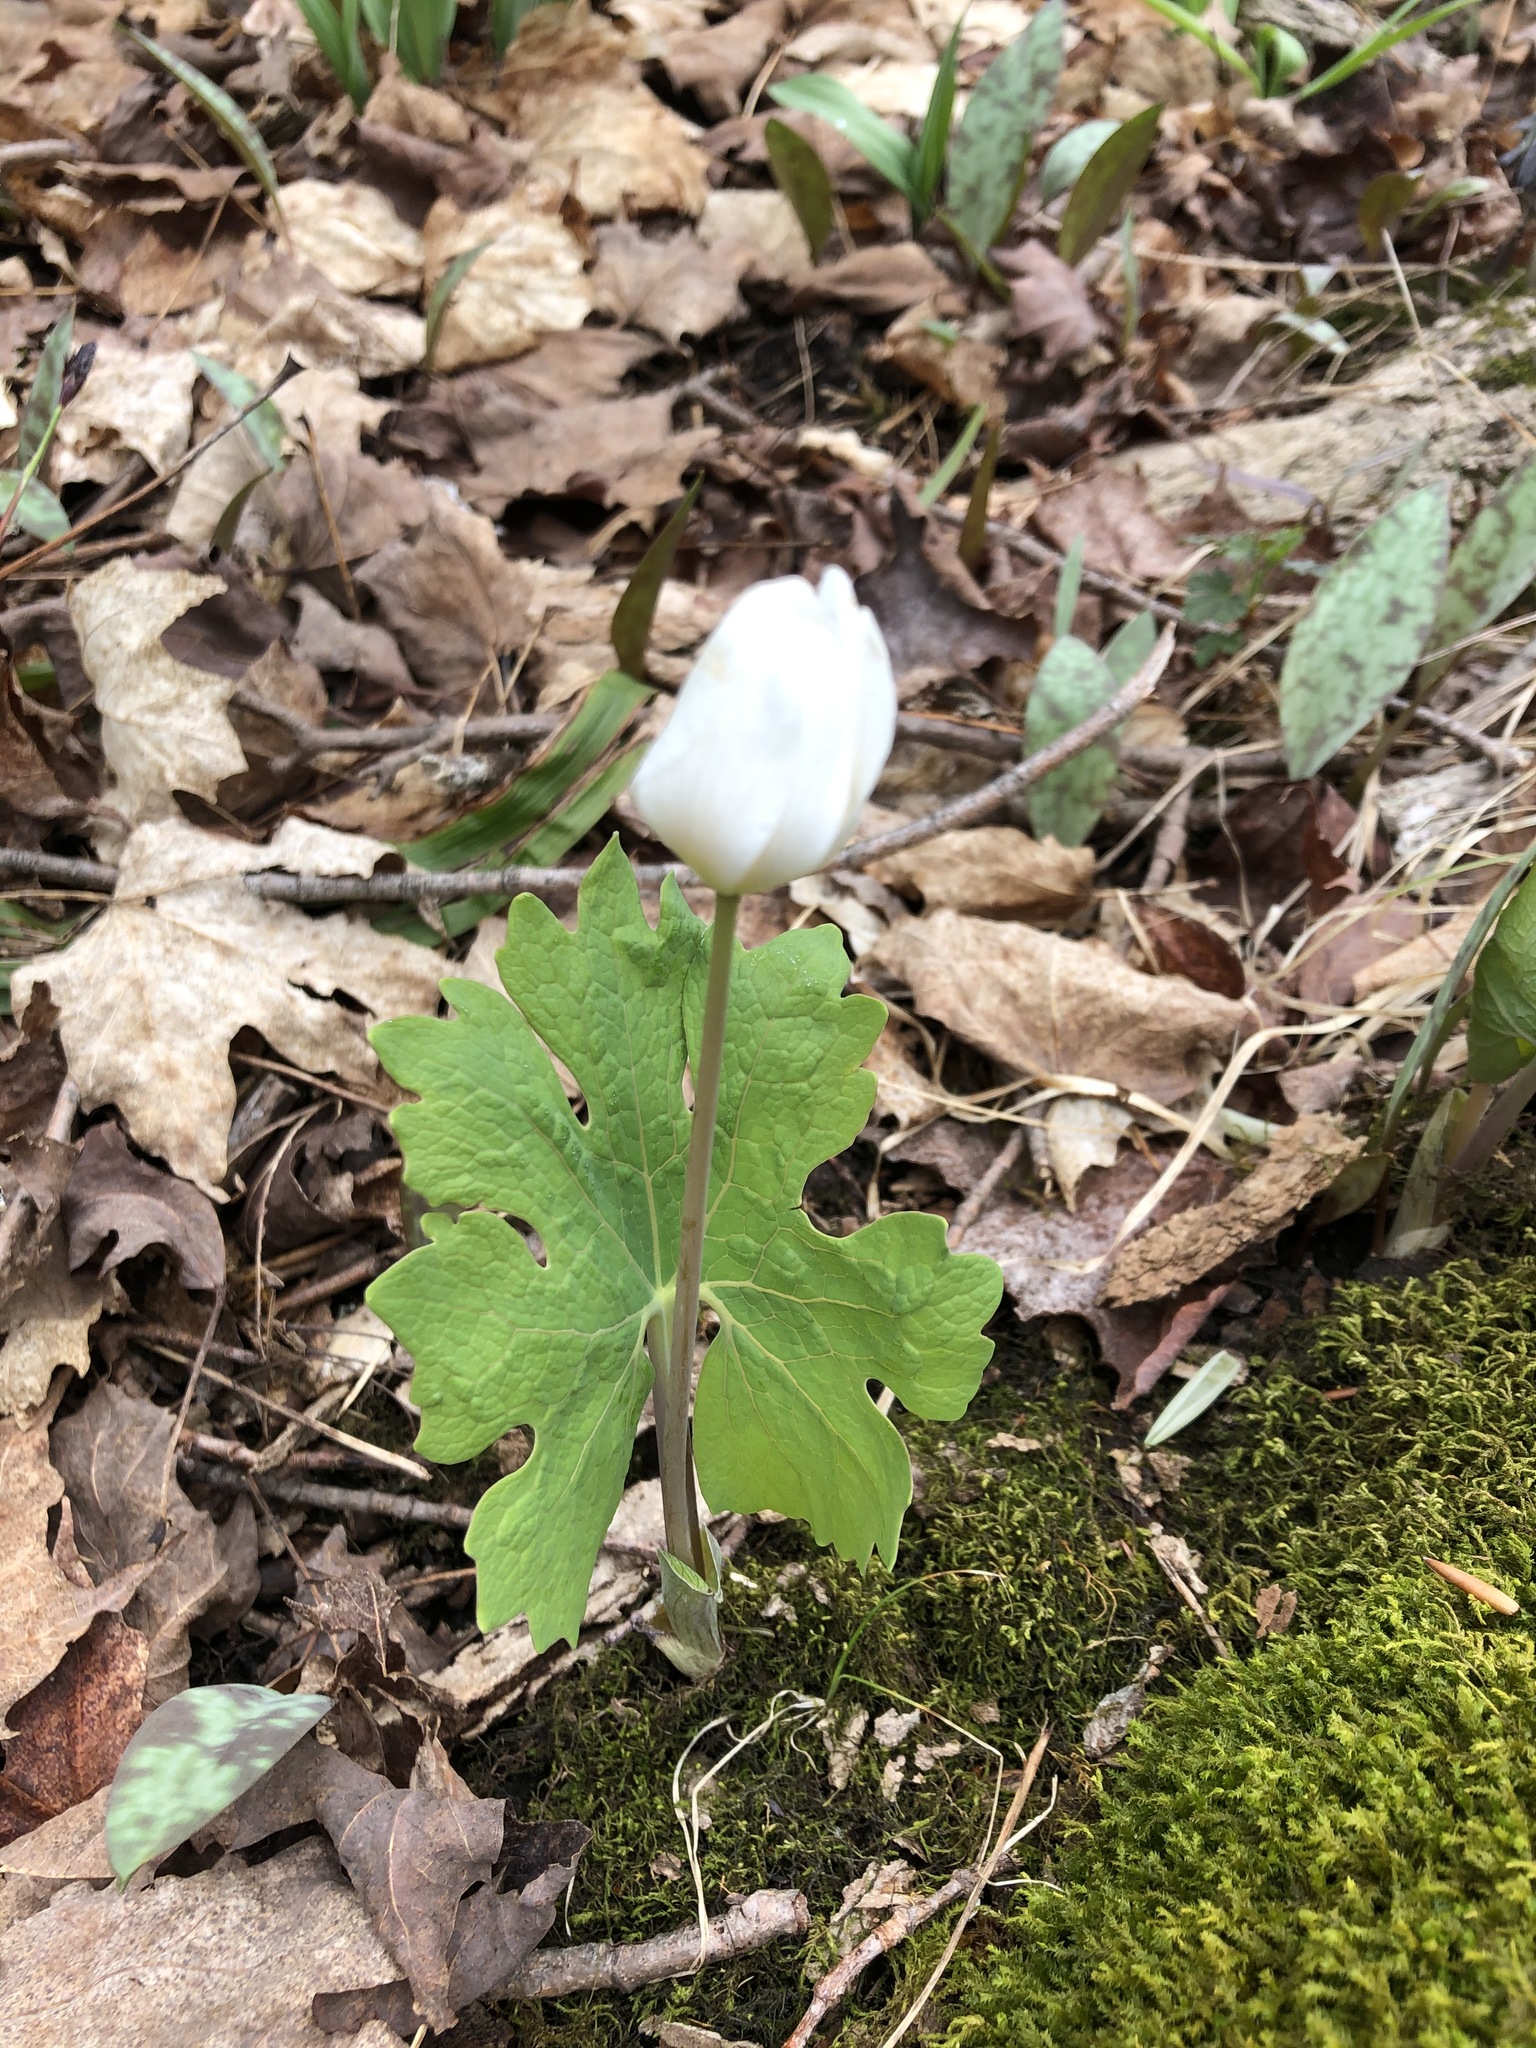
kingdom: Plantae
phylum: Tracheophyta
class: Magnoliopsida
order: Ranunculales
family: Papaveraceae
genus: Sanguinaria
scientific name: Sanguinaria canadensis
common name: Bloodroot
